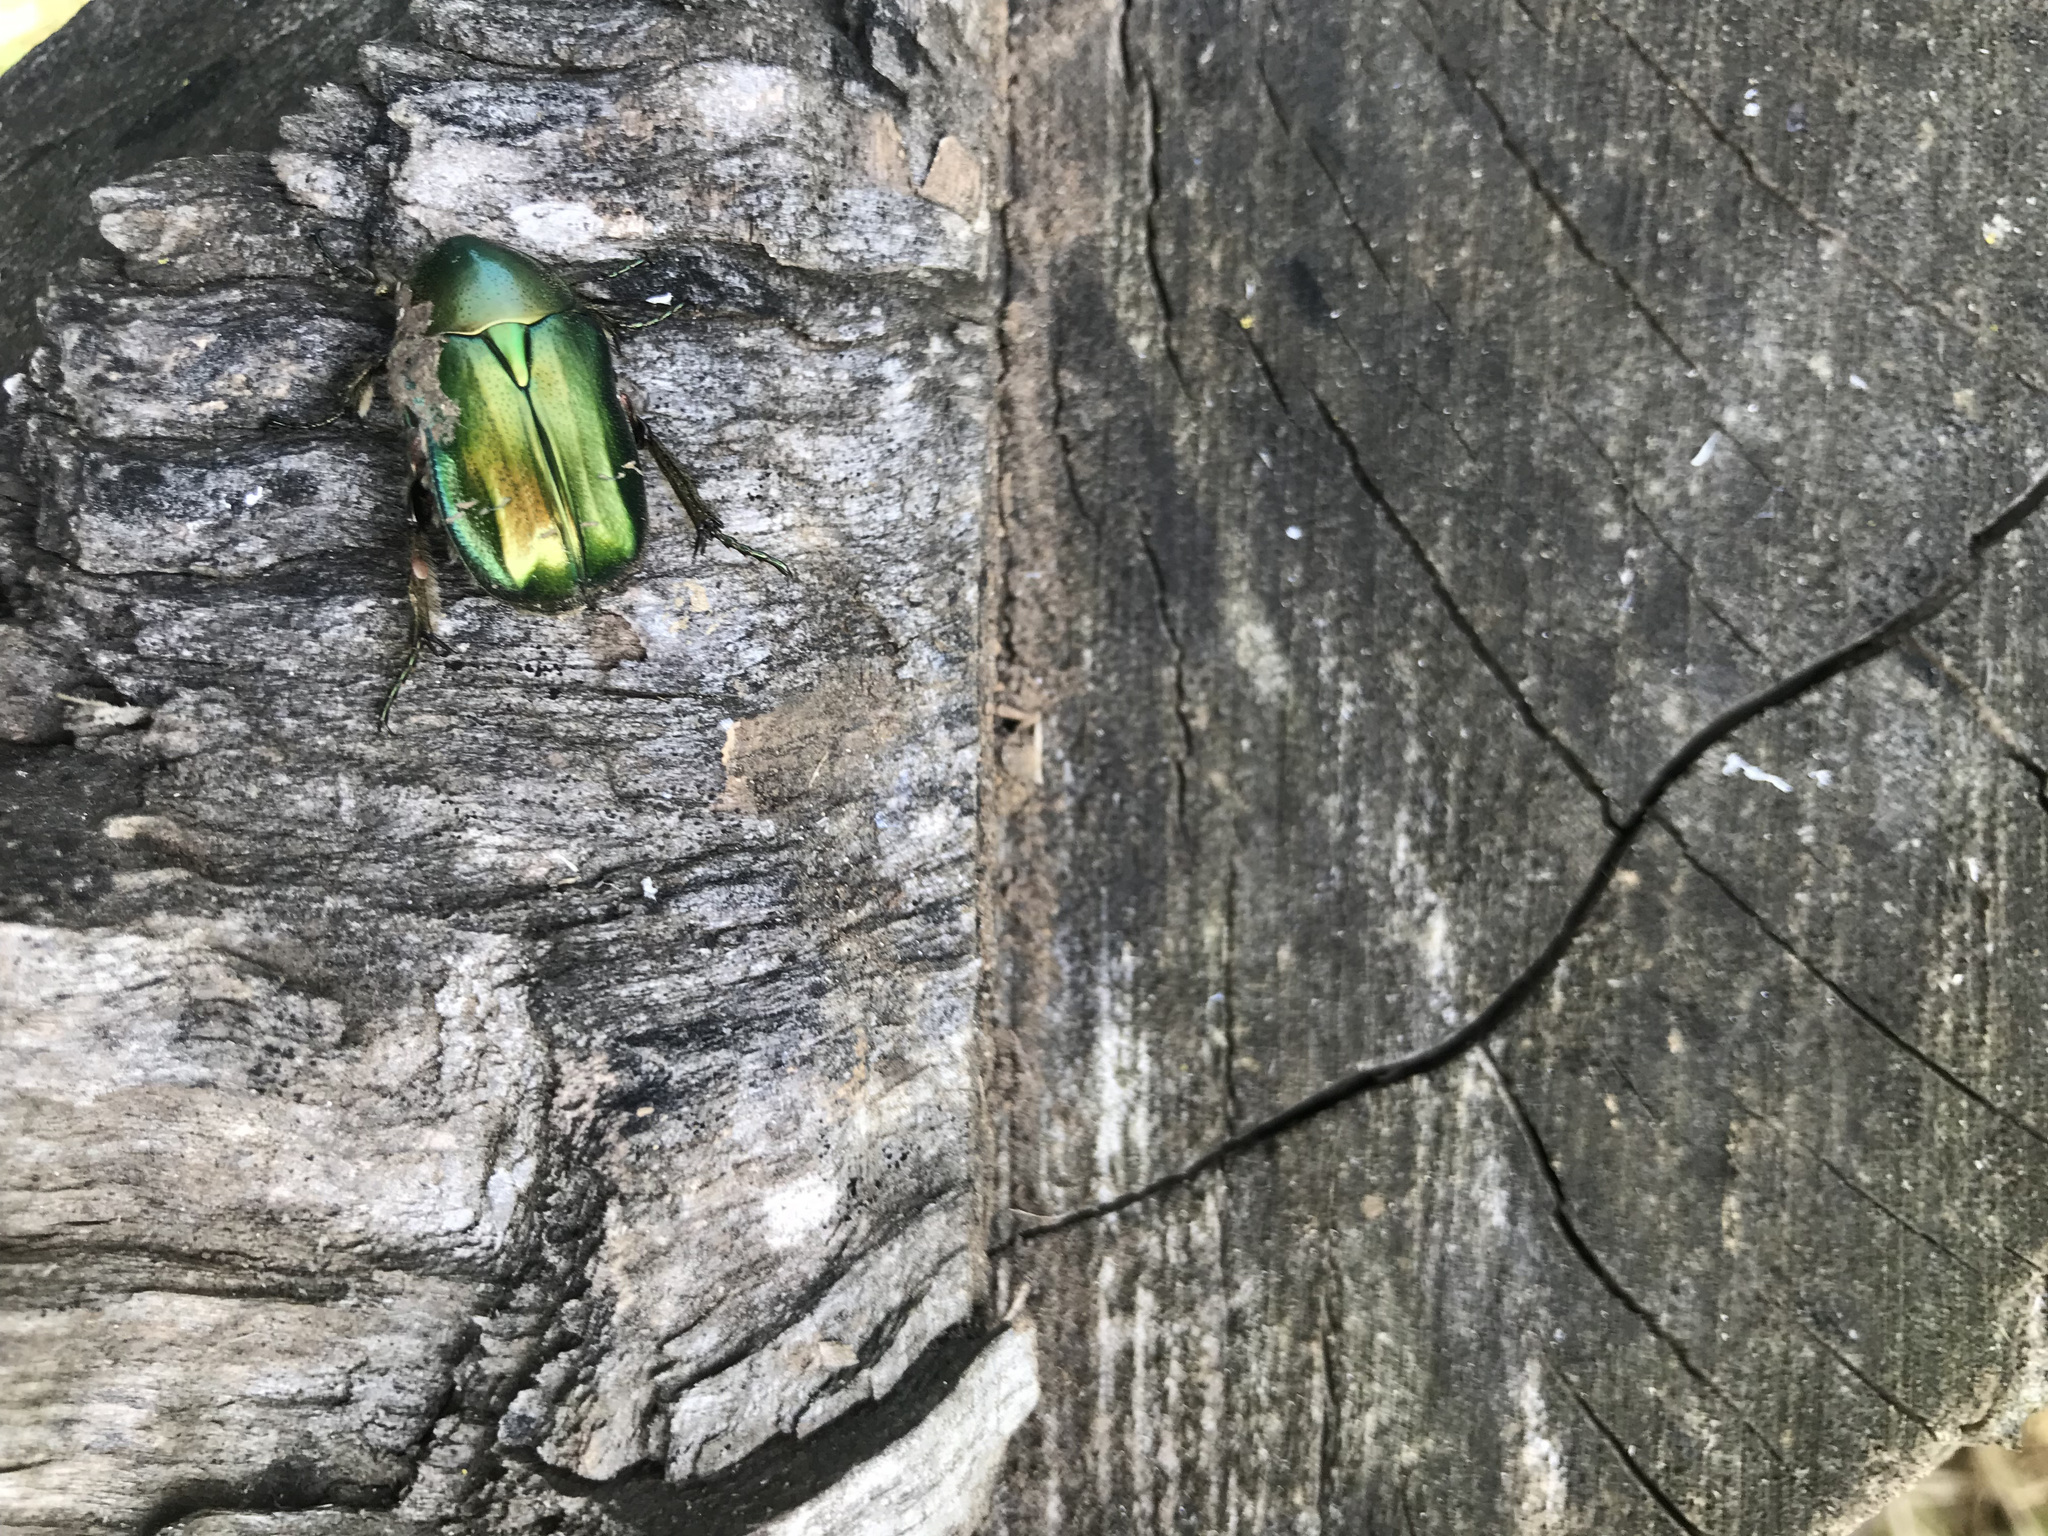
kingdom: Animalia
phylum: Arthropoda
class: Insecta
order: Coleoptera
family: Scarabaeidae
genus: Cetonia
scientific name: Cetonia aurata
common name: Rose chafer
